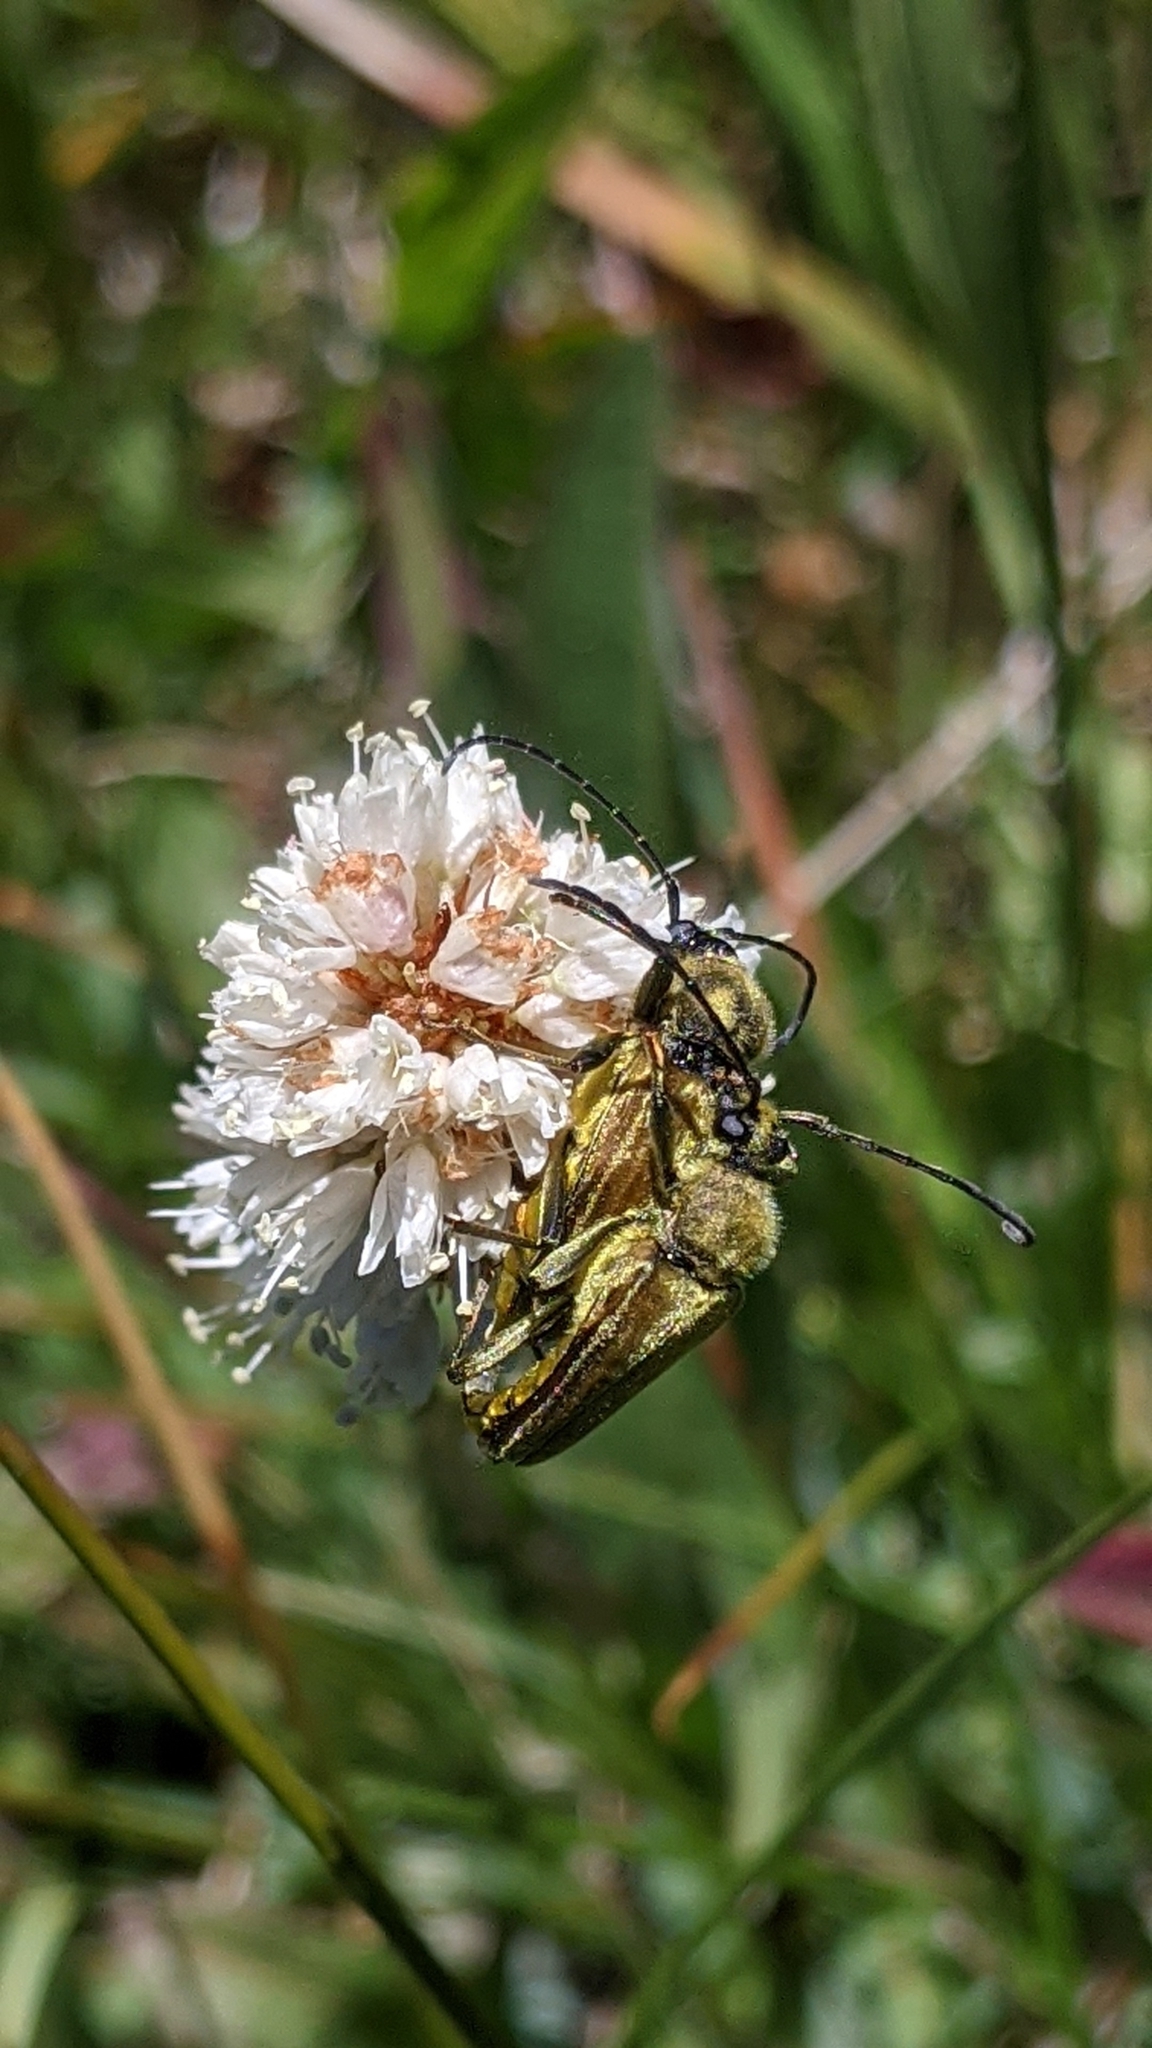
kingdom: Animalia
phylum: Arthropoda
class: Insecta
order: Coleoptera
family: Cerambycidae
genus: Cosmosalia
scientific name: Cosmosalia chrysocoma
